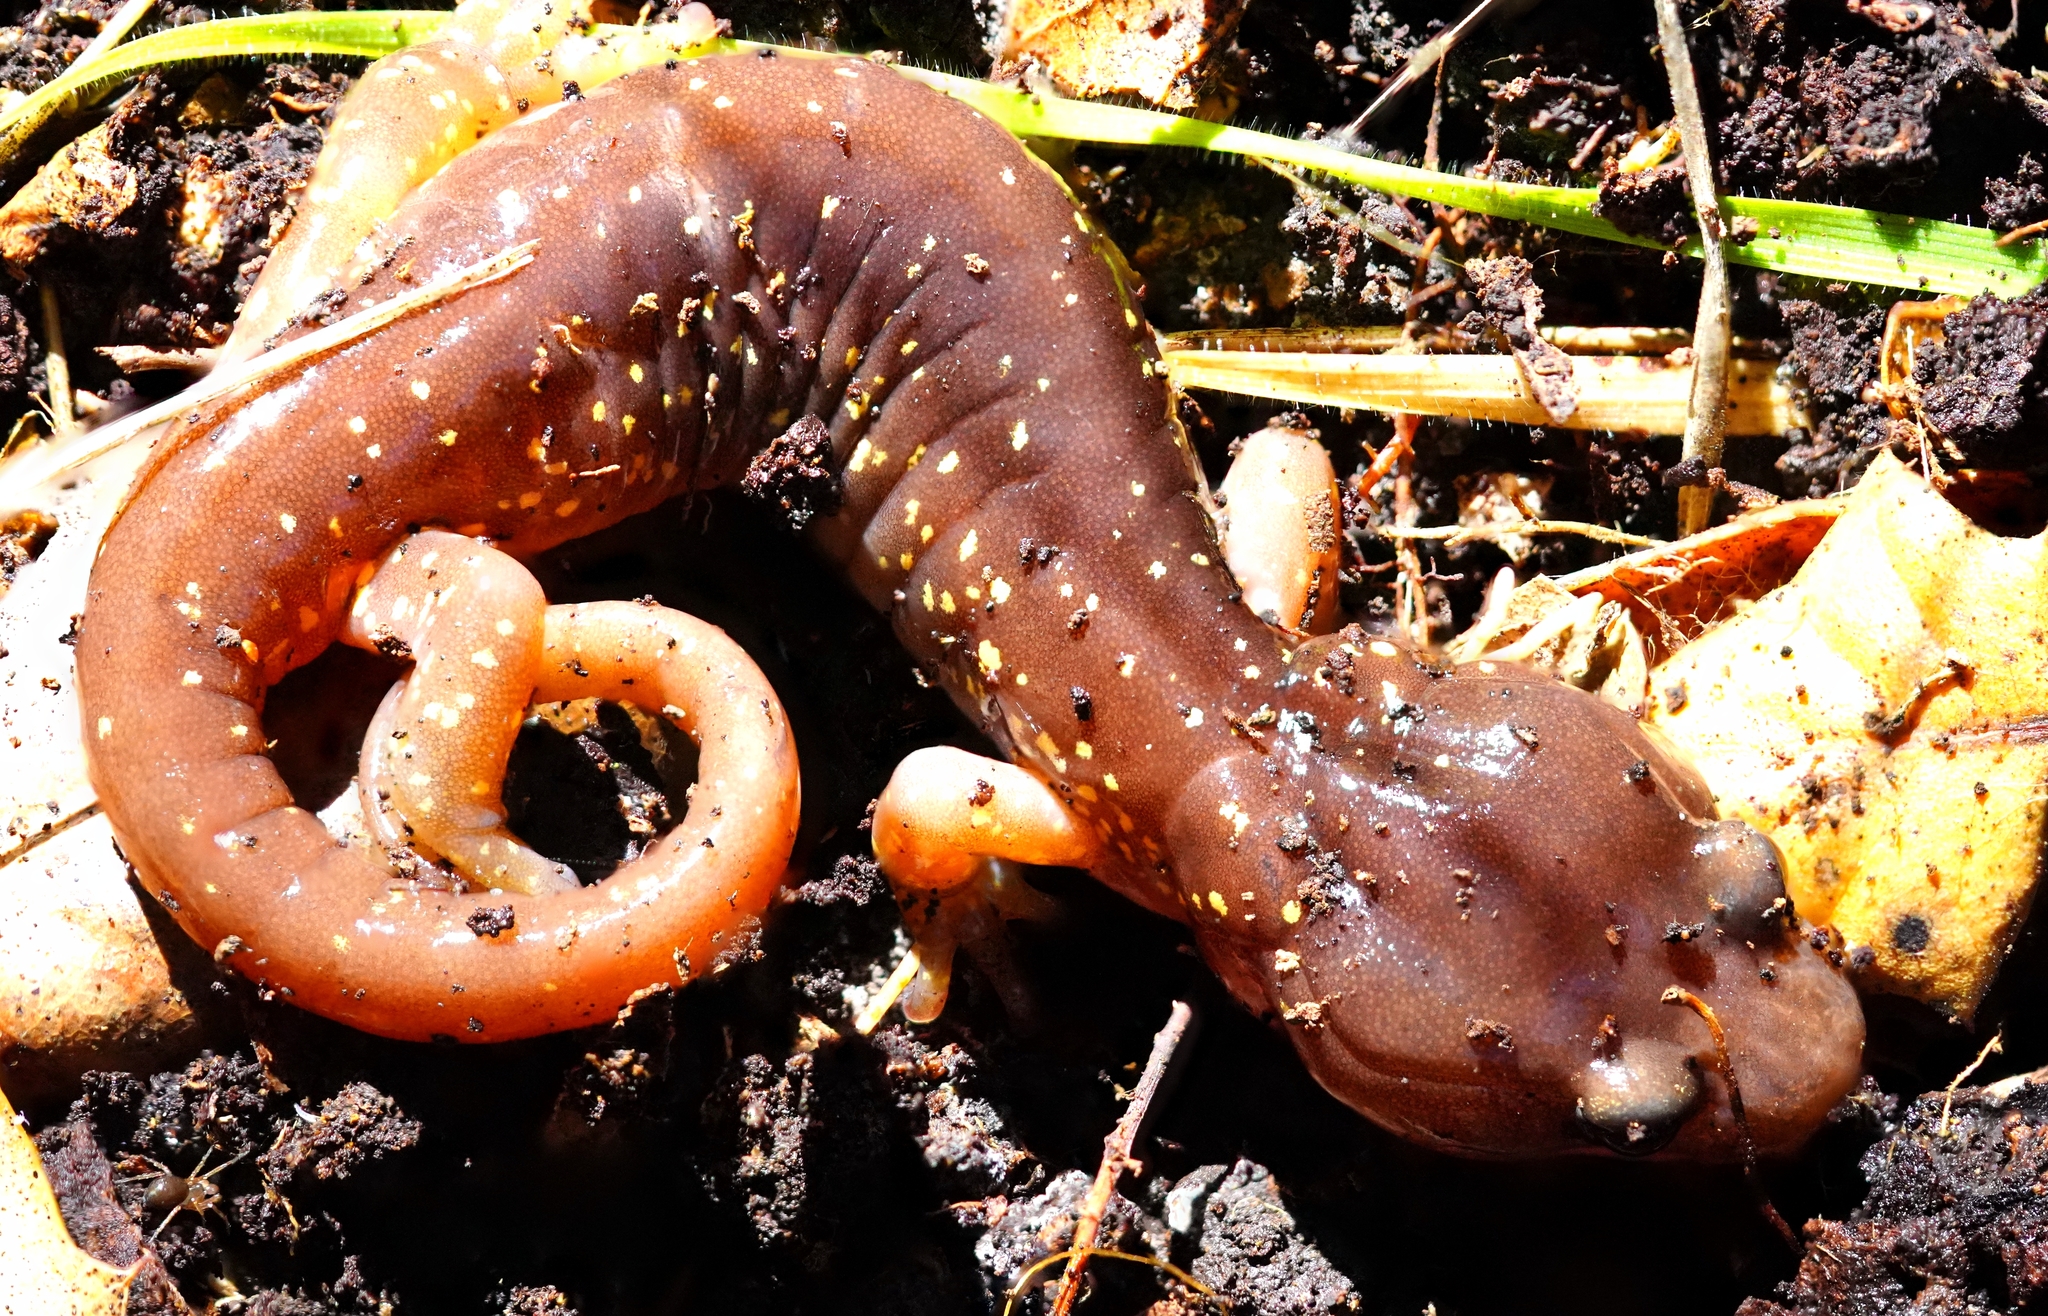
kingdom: Animalia
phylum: Chordata
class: Amphibia
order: Caudata
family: Plethodontidae
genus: Aneides
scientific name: Aneides lugubris
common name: Arboreal salamander
